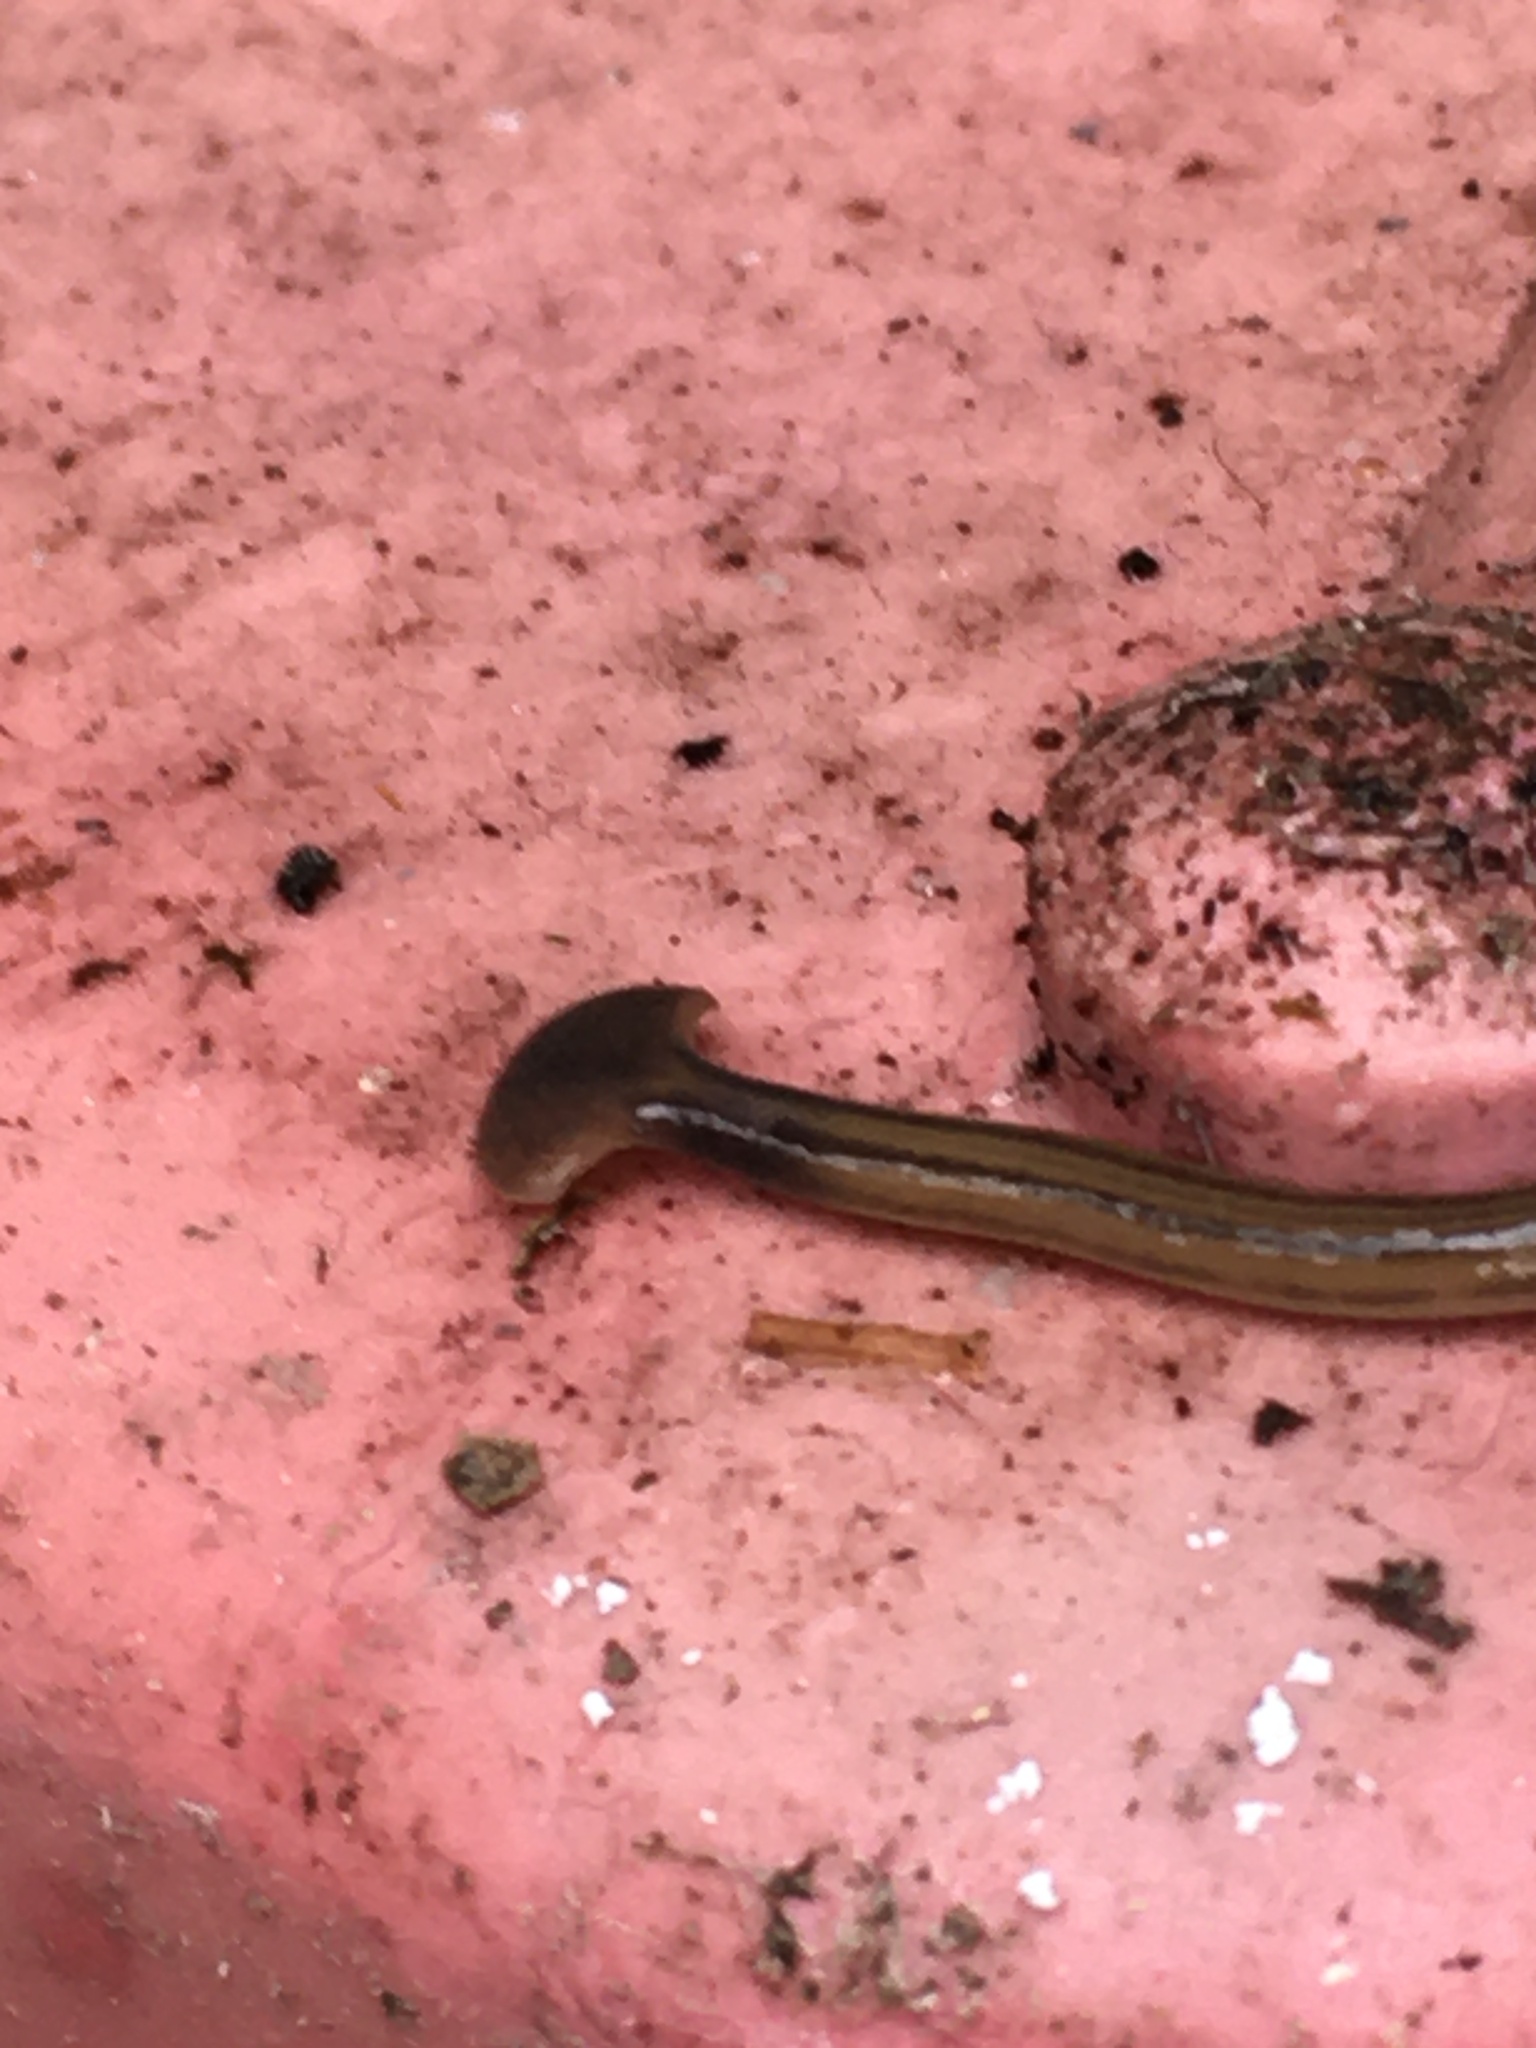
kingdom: Animalia
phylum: Platyhelminthes
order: Tricladida
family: Geoplanidae
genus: Bipalium
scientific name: Bipalium kewense
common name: Hammerhead flatworm
